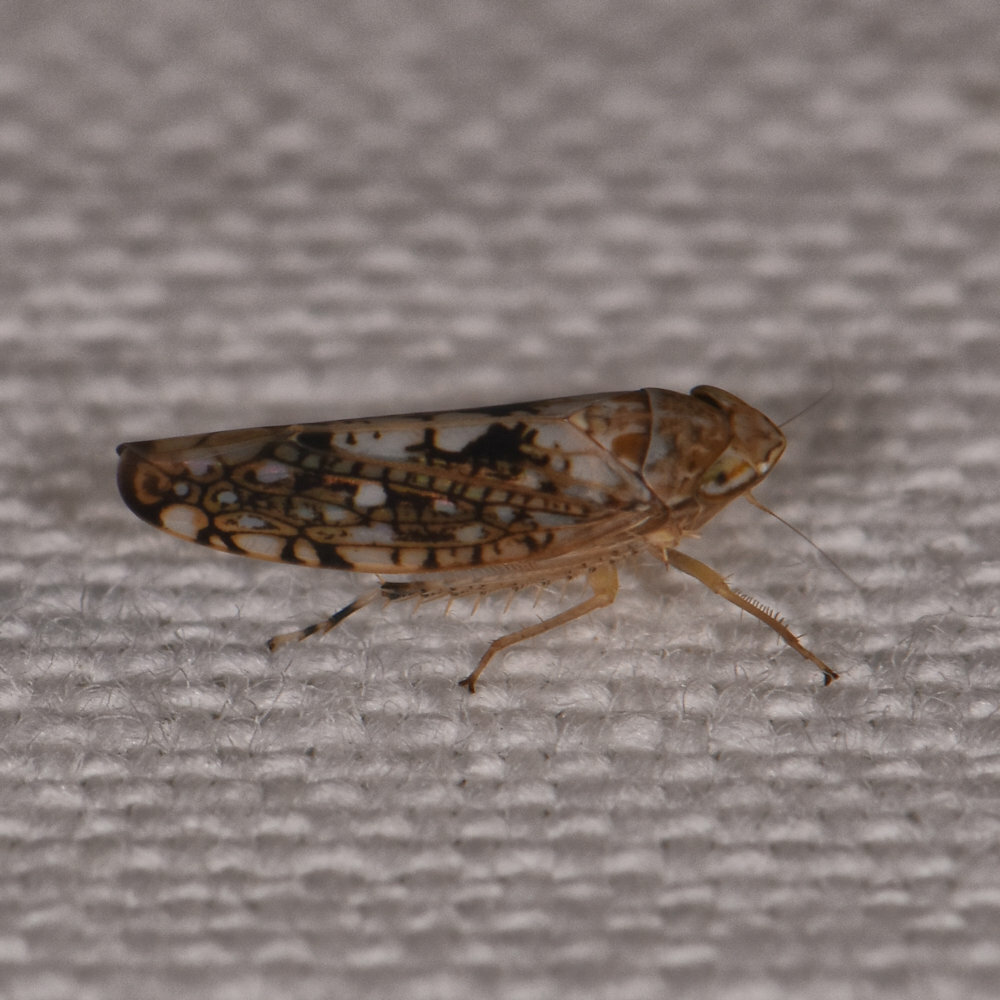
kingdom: Animalia
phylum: Arthropoda
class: Insecta
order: Hemiptera
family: Cicadellidae
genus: Prescottia
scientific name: Prescottia lobata
